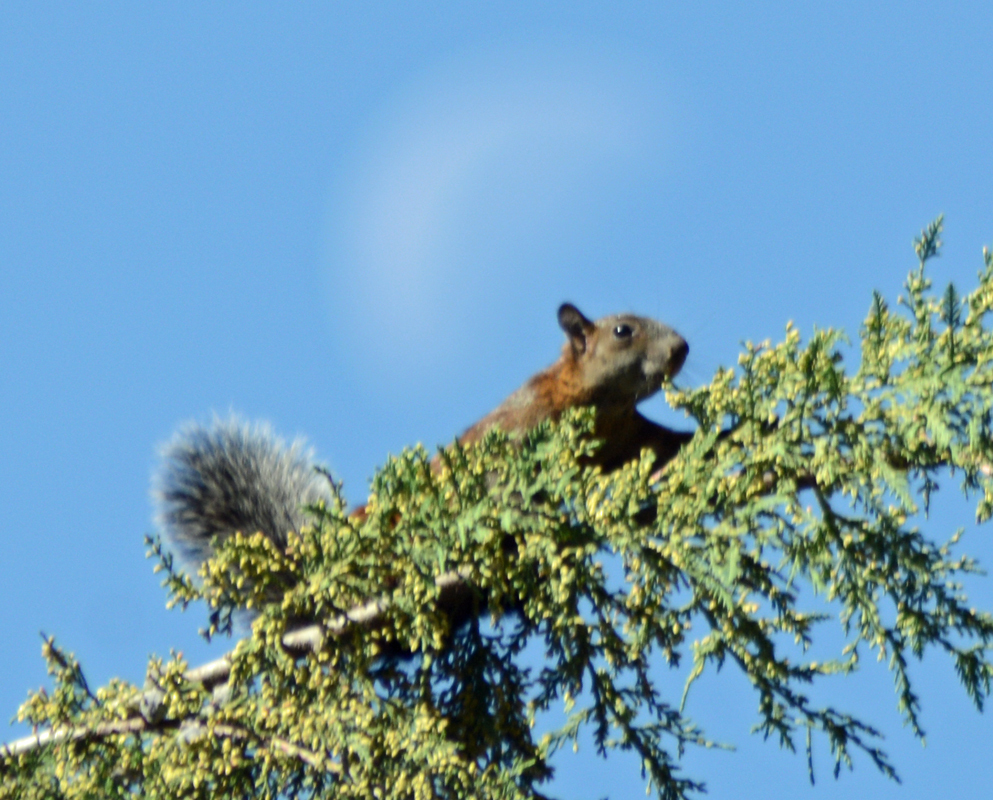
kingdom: Animalia
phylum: Chordata
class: Mammalia
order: Rodentia
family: Sciuridae
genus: Sciurus
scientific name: Sciurus aureogaster
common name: Red-bellied squirrel
